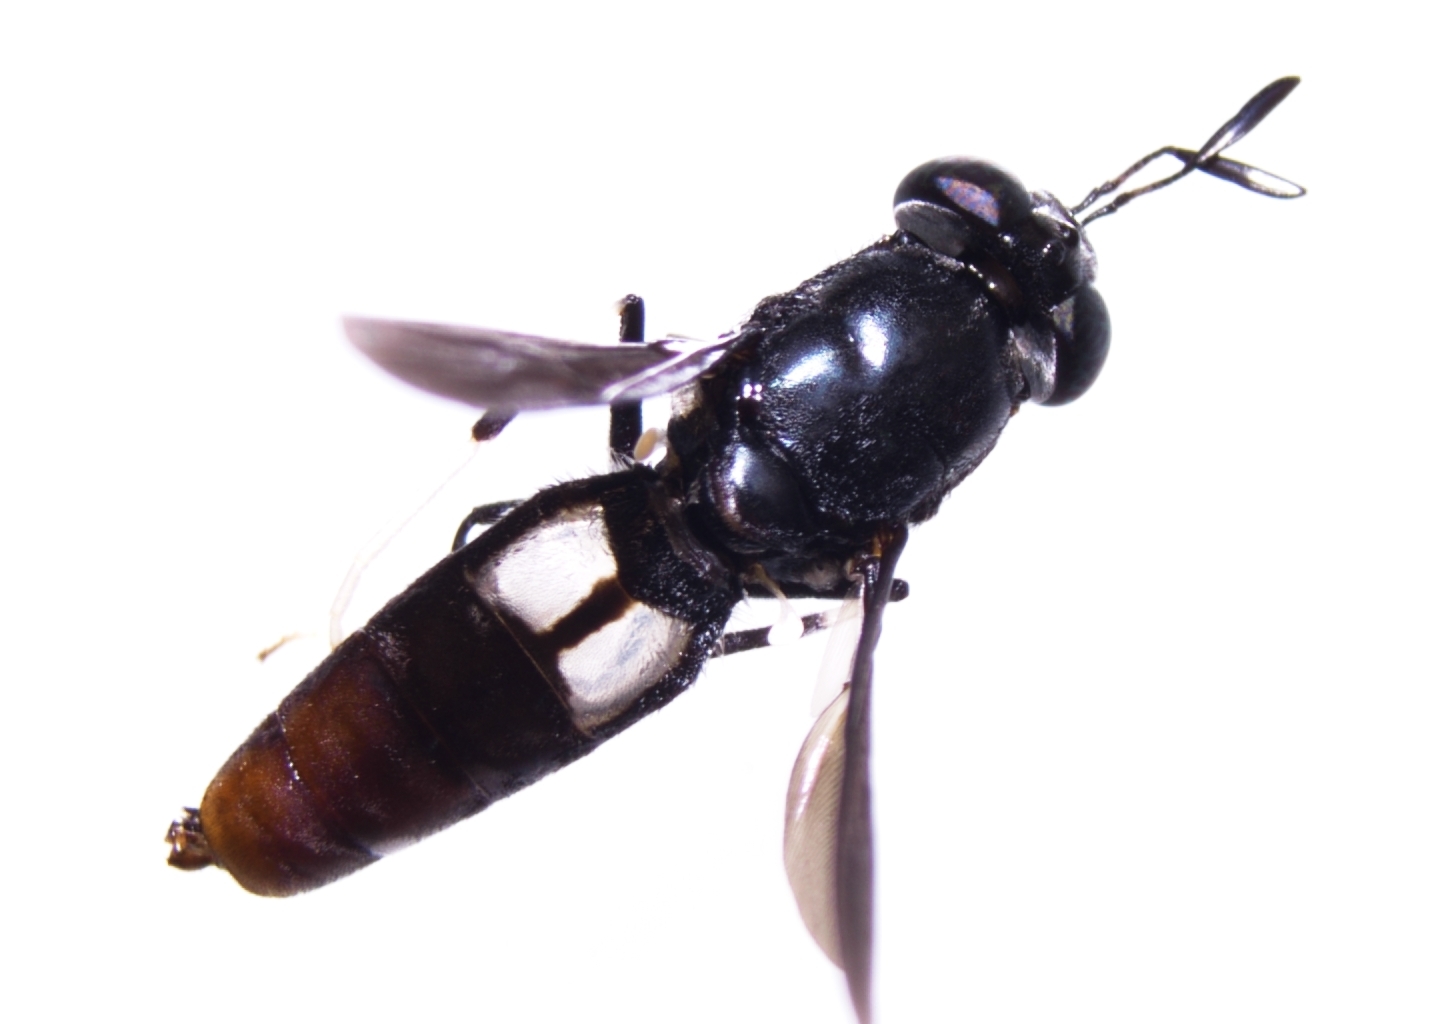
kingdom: Animalia
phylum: Arthropoda
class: Insecta
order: Diptera
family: Stratiomyidae
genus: Hermetia
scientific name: Hermetia illucens
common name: Black soldier fly
